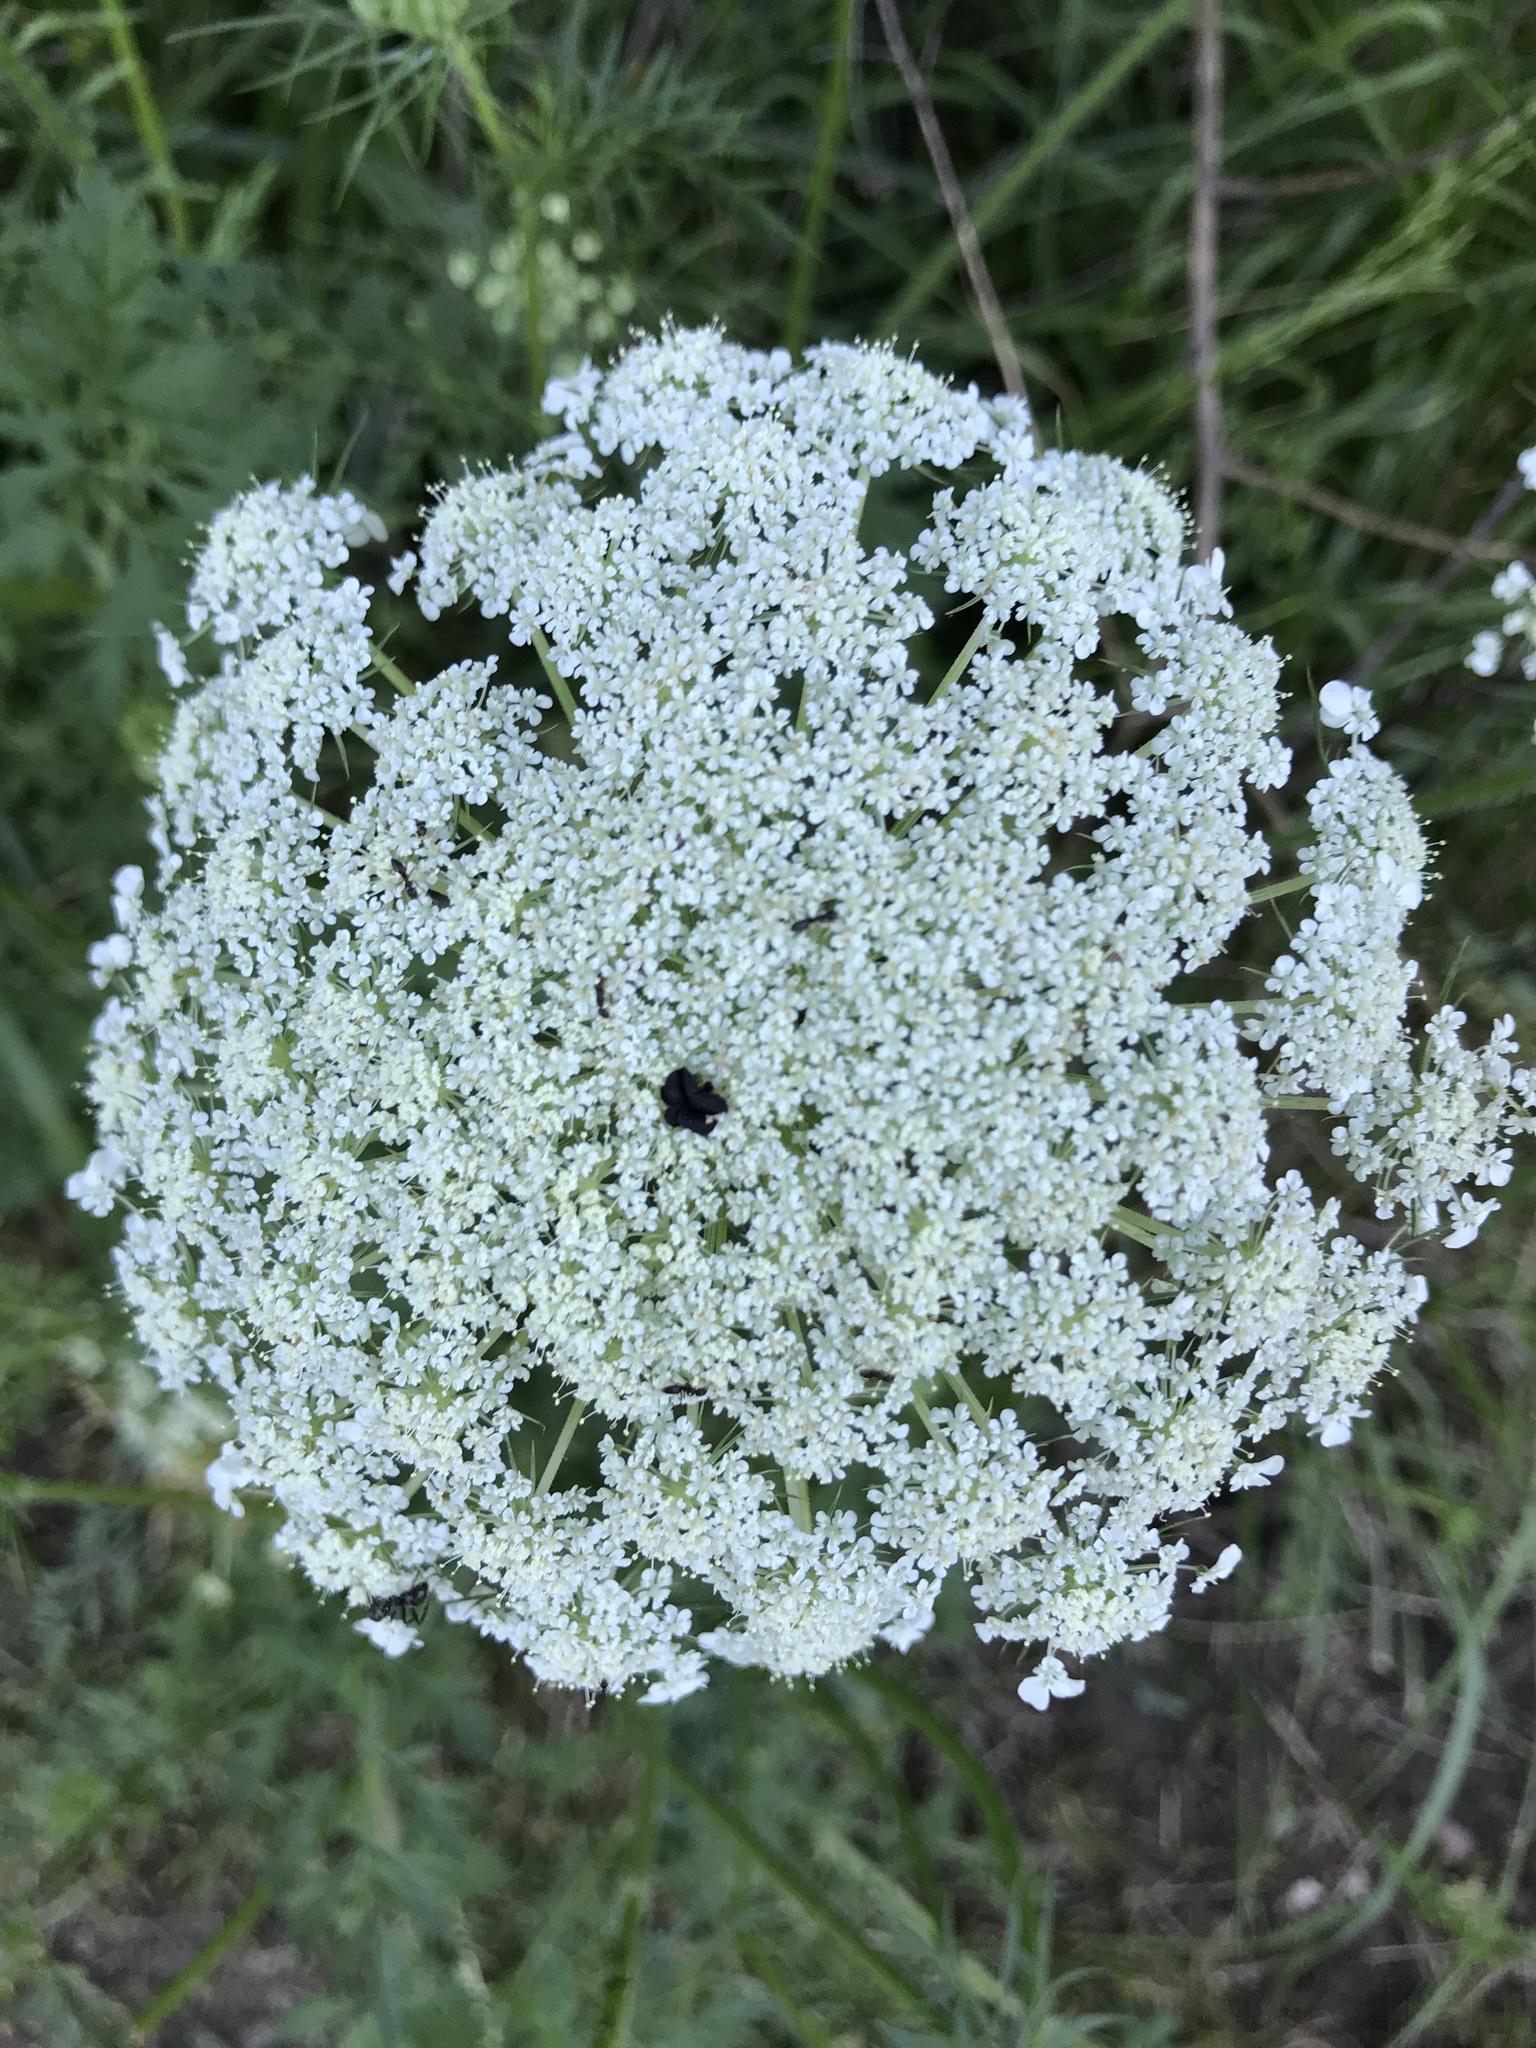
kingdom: Plantae
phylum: Tracheophyta
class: Magnoliopsida
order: Apiales
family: Apiaceae
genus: Daucus
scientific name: Daucus carota
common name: Wild carrot
